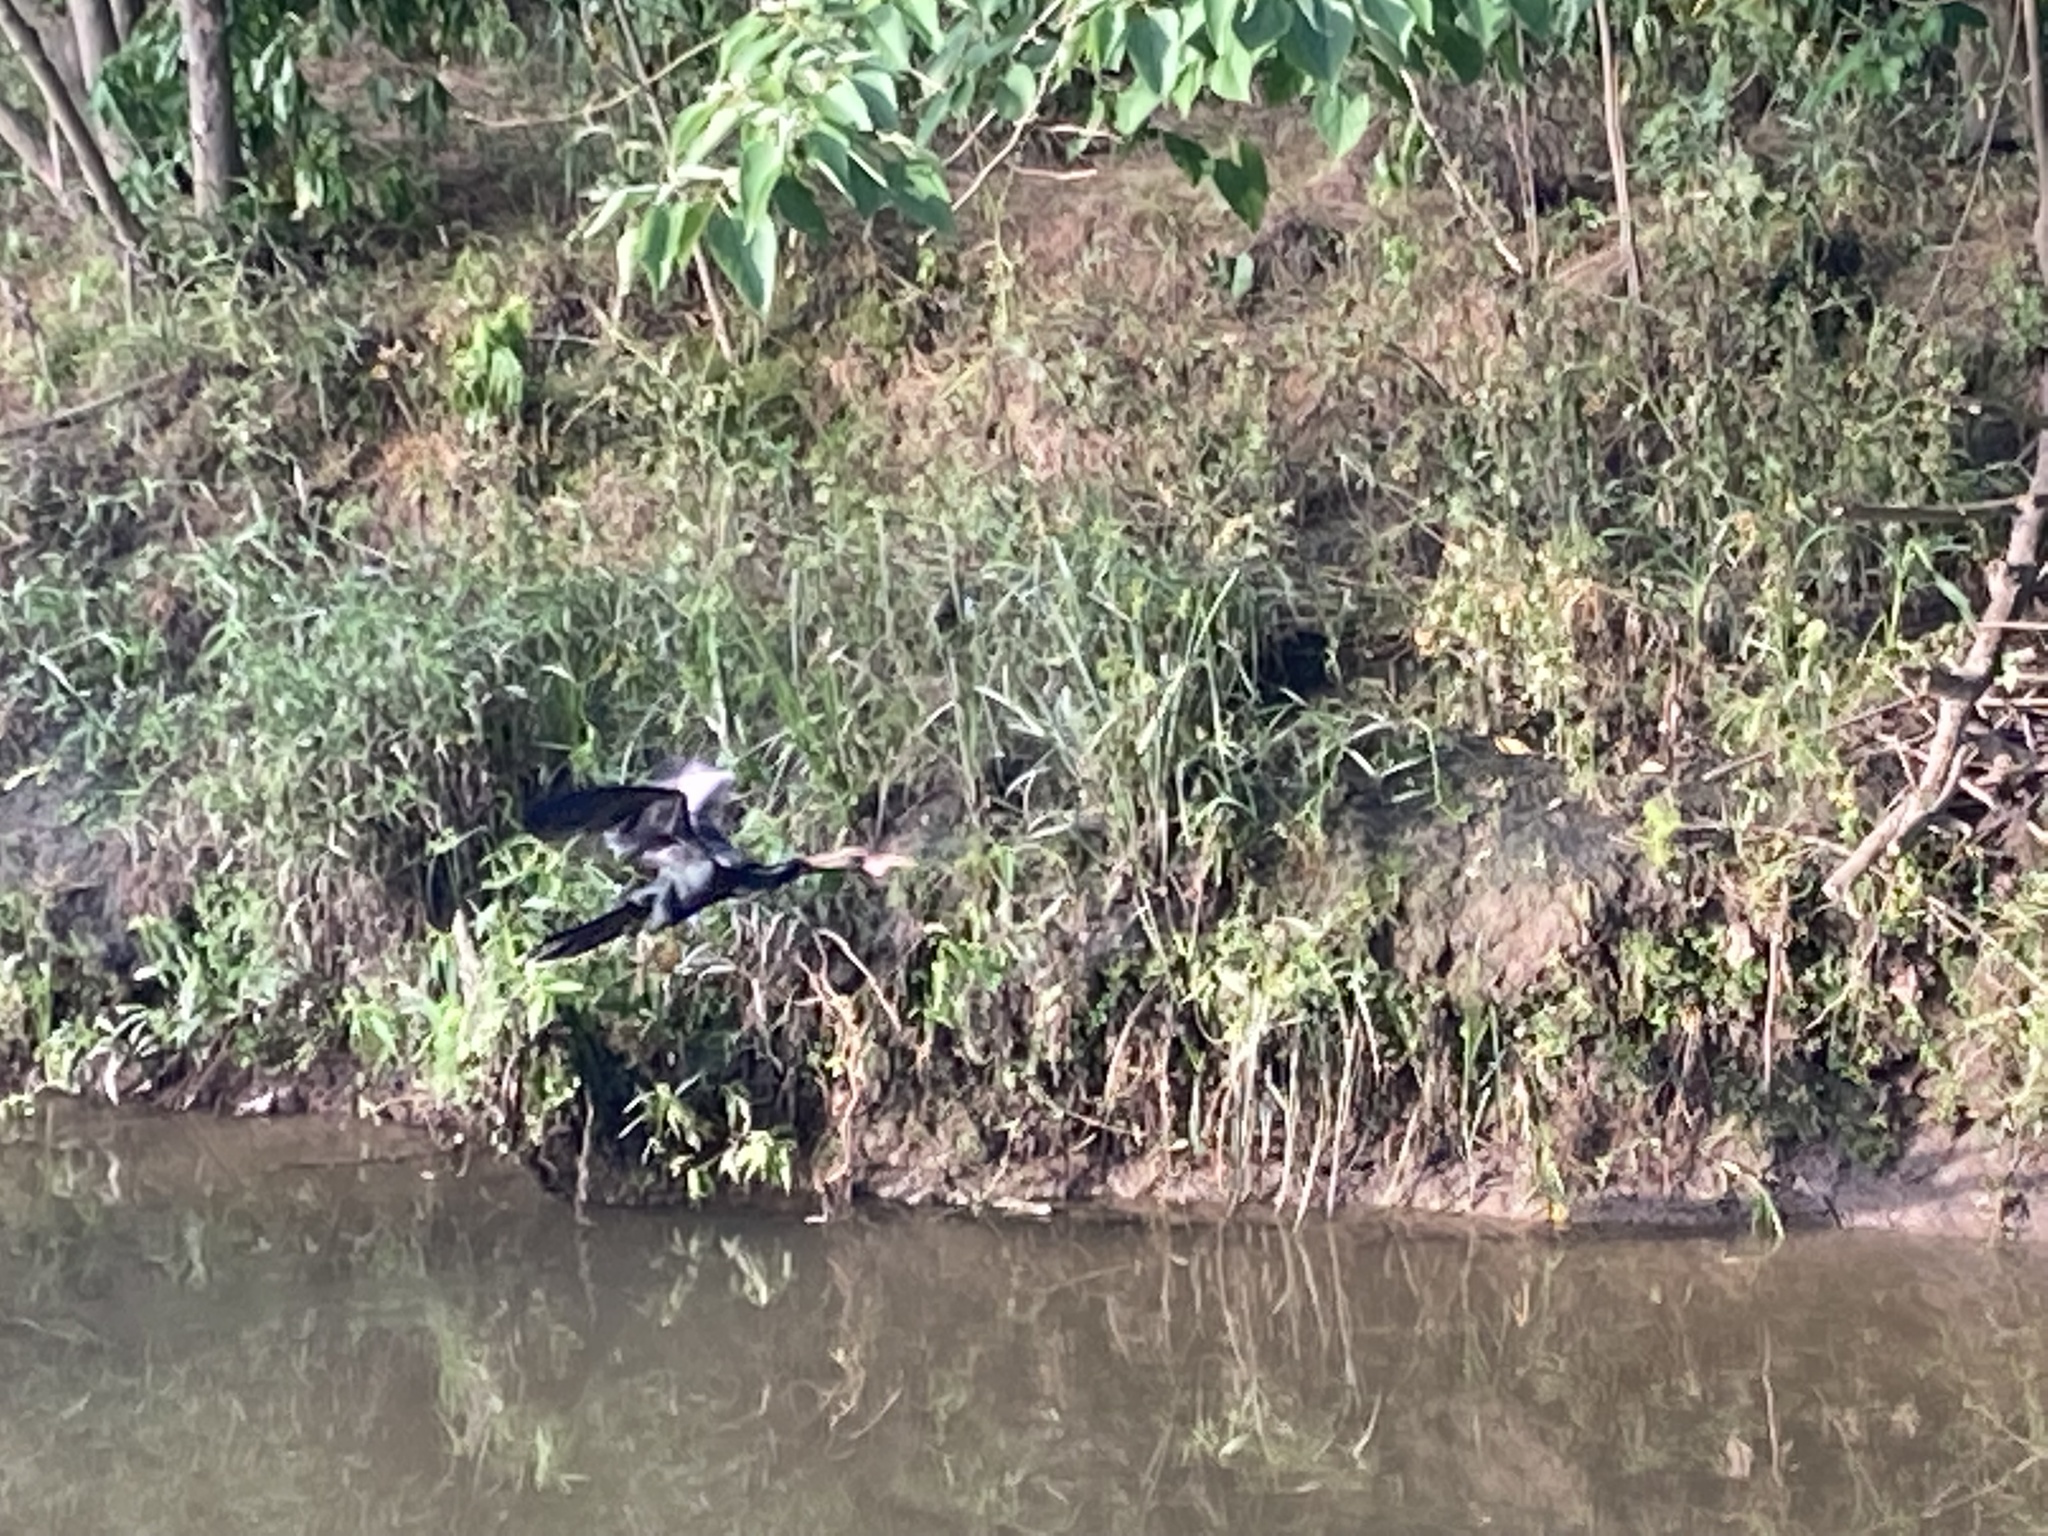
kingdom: Animalia
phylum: Chordata
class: Aves
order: Suliformes
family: Anhingidae
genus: Anhinga
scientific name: Anhinga anhinga
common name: Anhinga
